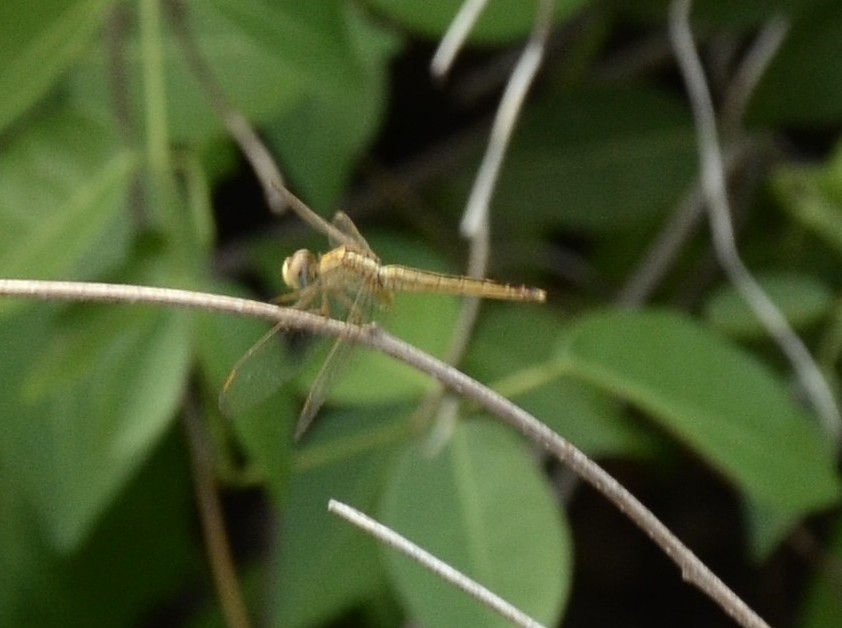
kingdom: Animalia
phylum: Arthropoda
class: Insecta
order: Odonata
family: Libellulidae
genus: Crocothemis
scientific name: Crocothemis servilia
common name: Scarlet skimmer
